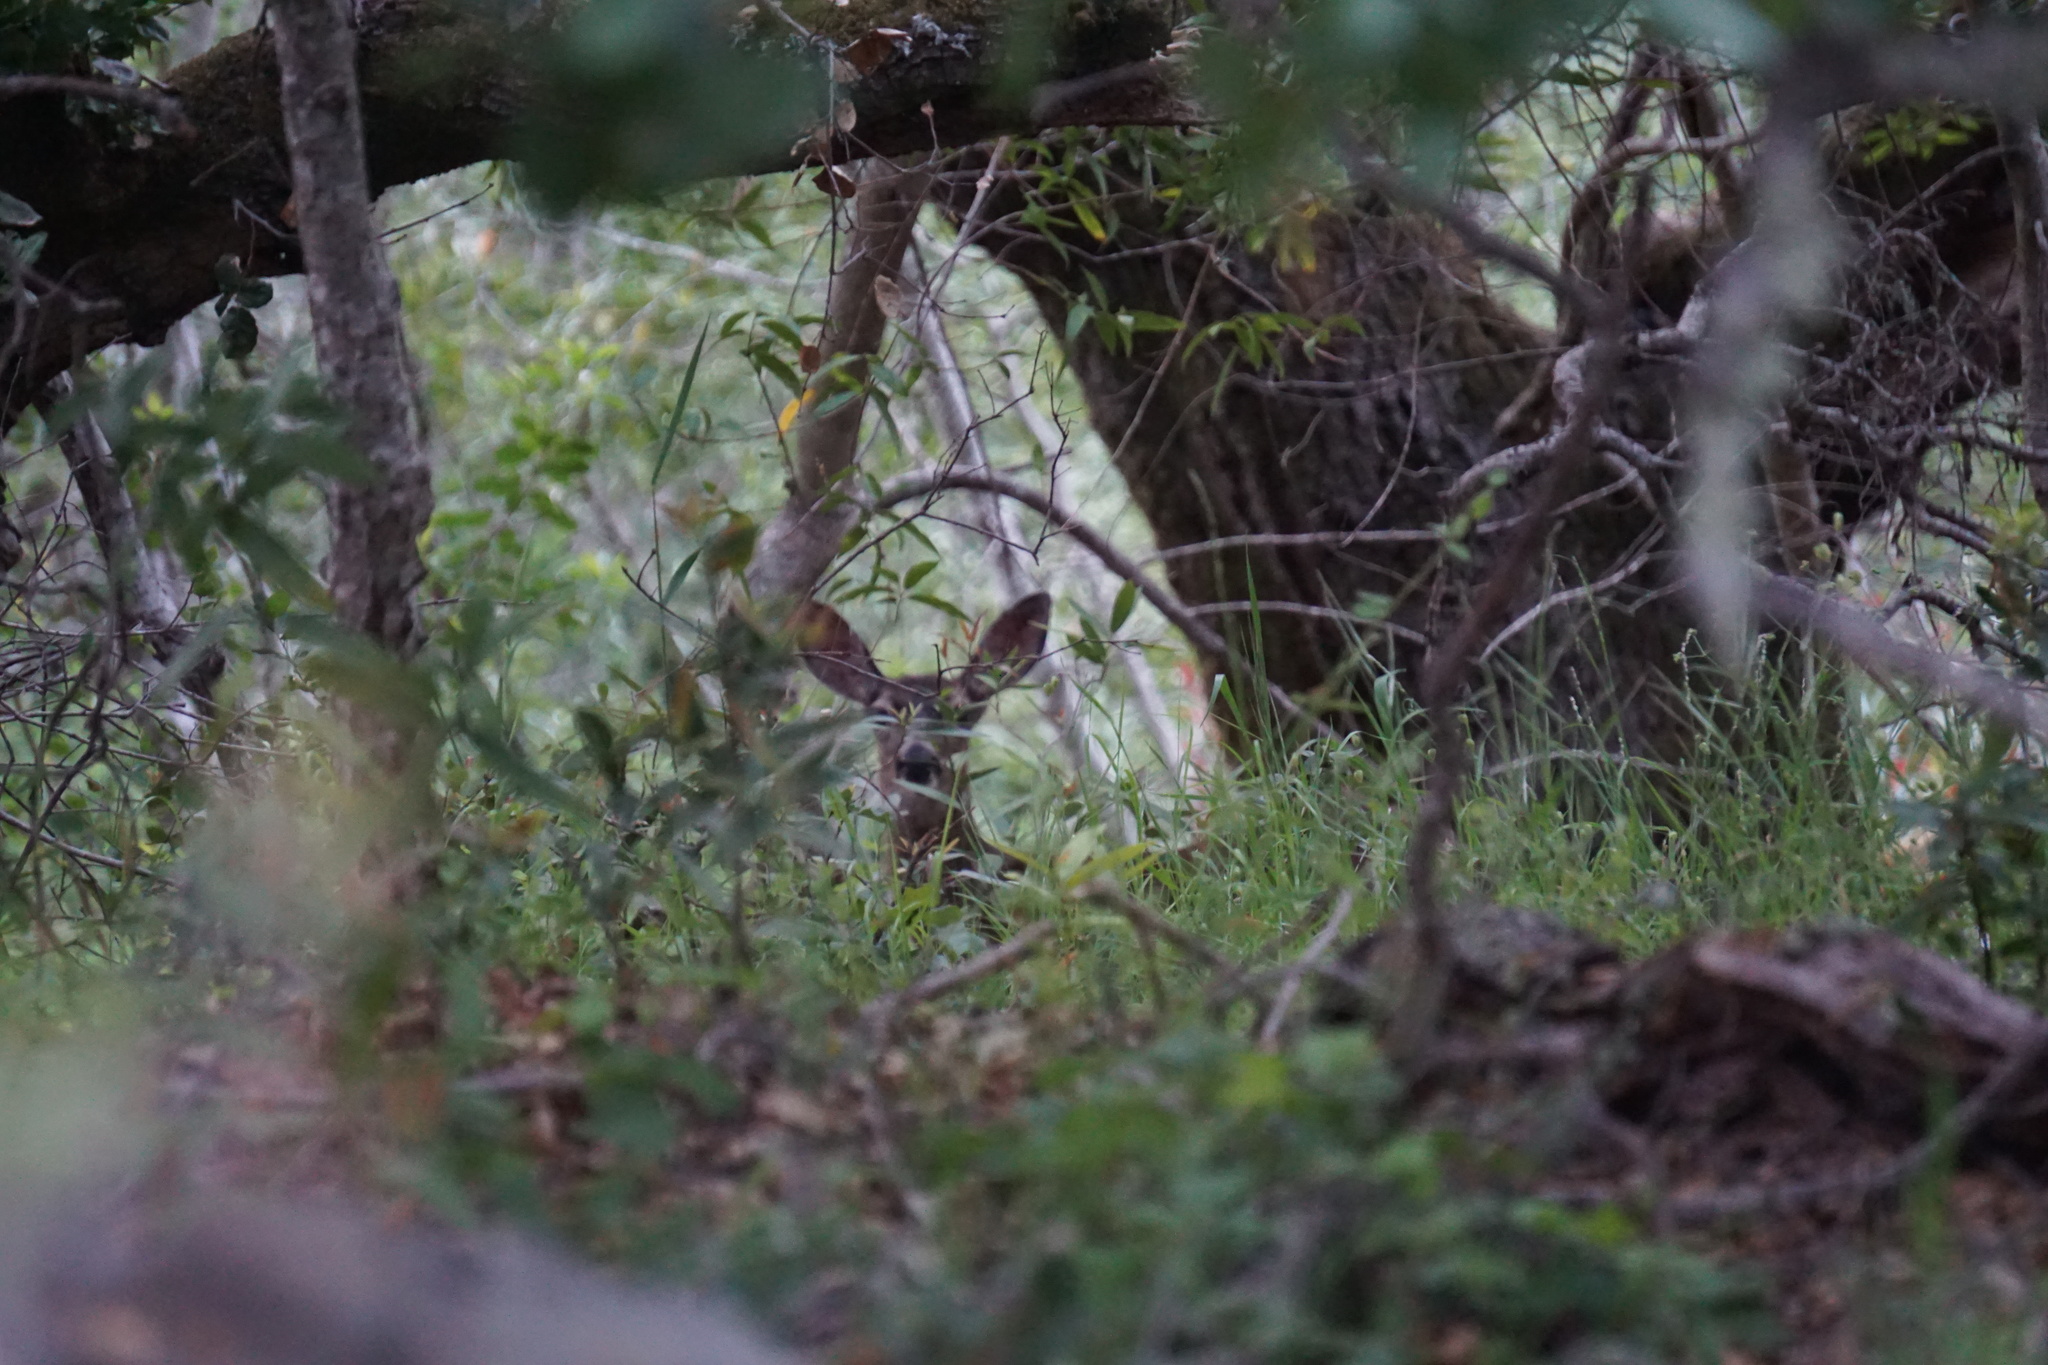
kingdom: Animalia
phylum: Chordata
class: Mammalia
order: Artiodactyla
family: Cervidae
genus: Odocoileus
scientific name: Odocoileus hemionus
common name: Mule deer
